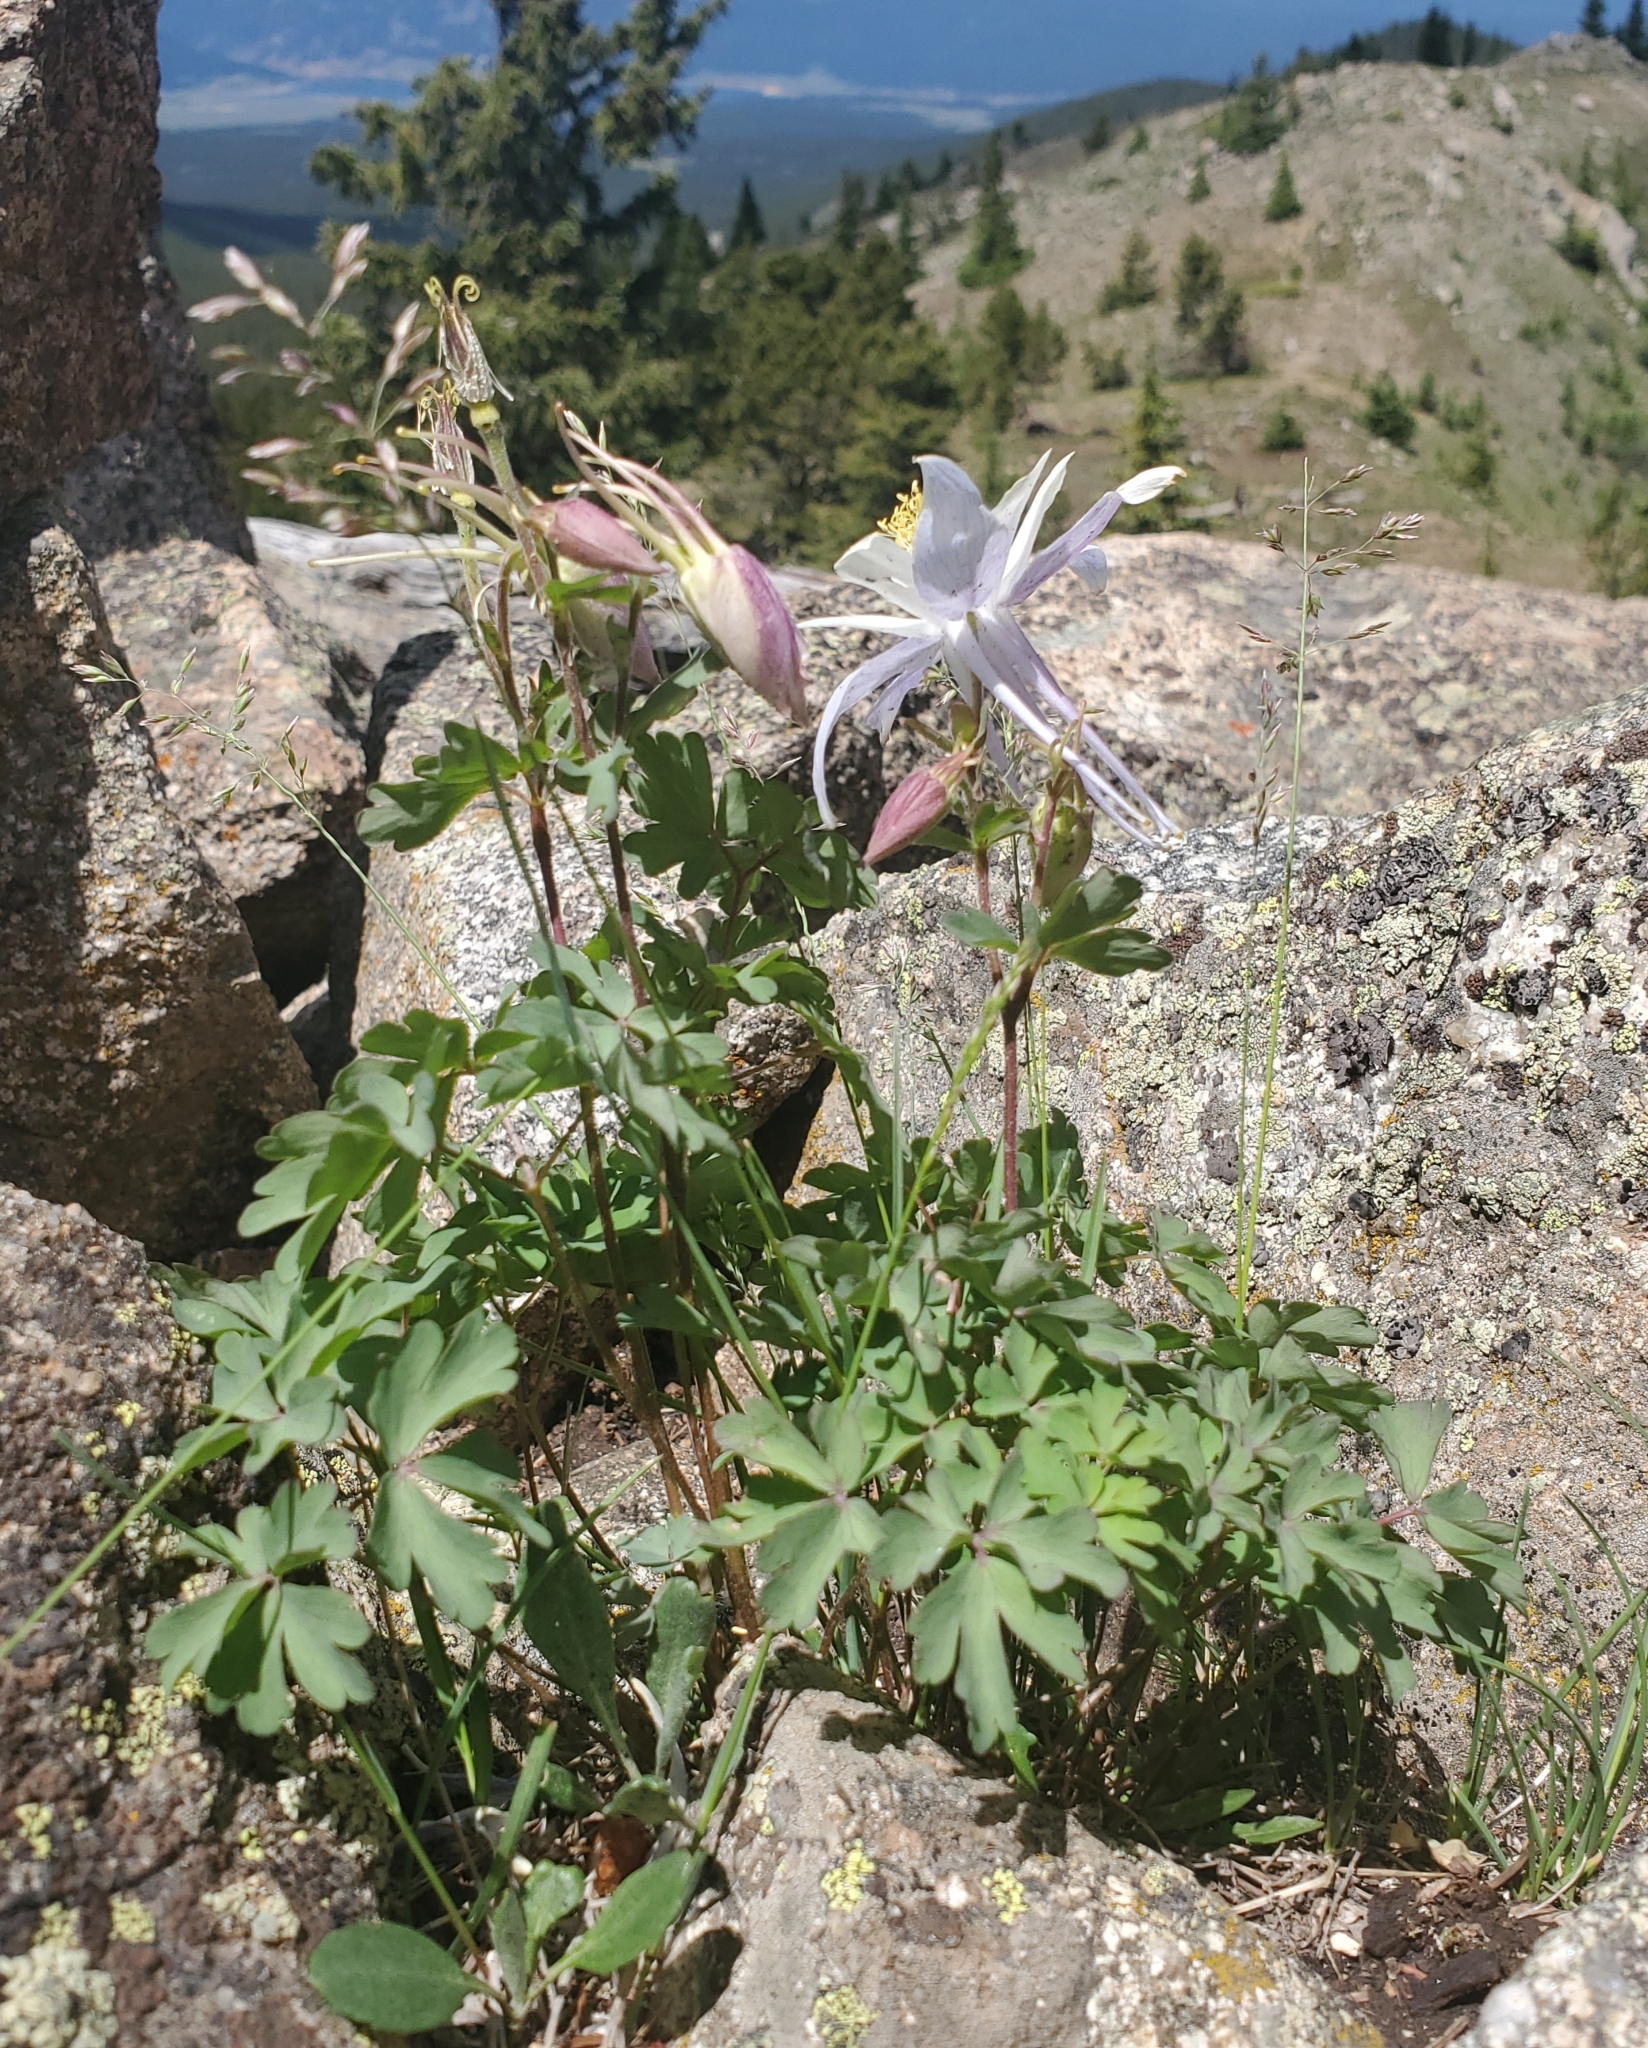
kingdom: Plantae
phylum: Tracheophyta
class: Magnoliopsida
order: Ranunculales
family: Ranunculaceae
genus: Aquilegia
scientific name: Aquilegia coerulea
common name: Rocky mountain columbine
